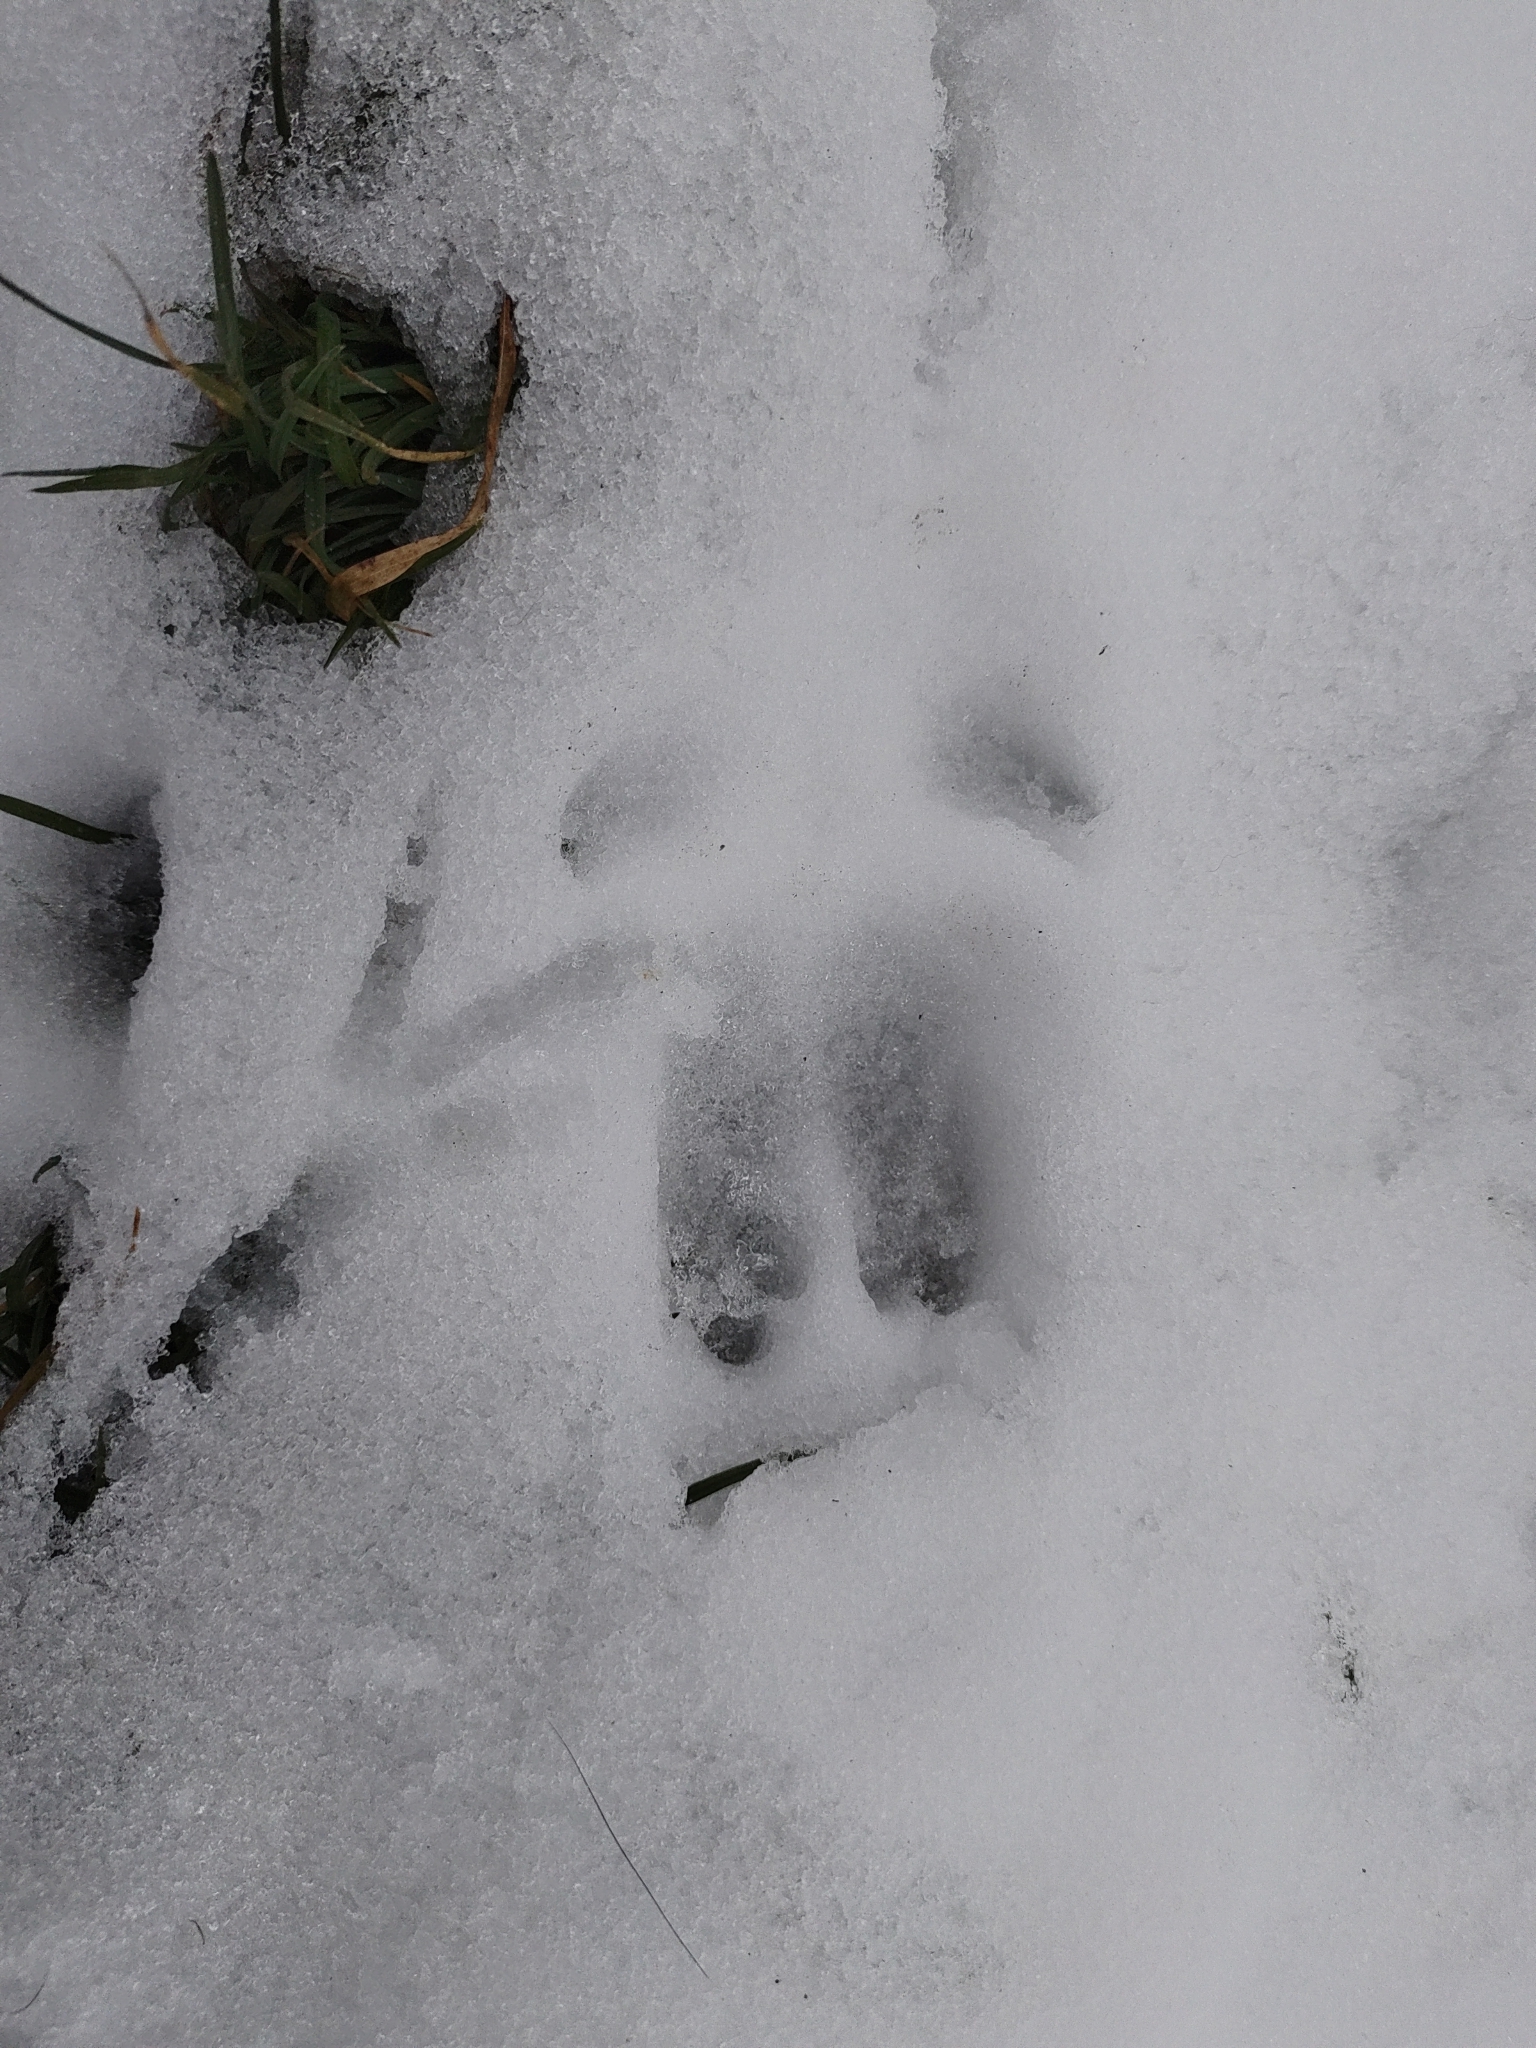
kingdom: Animalia
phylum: Chordata
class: Mammalia
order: Artiodactyla
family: Suidae
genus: Sus
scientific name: Sus scrofa
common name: Wild boar
